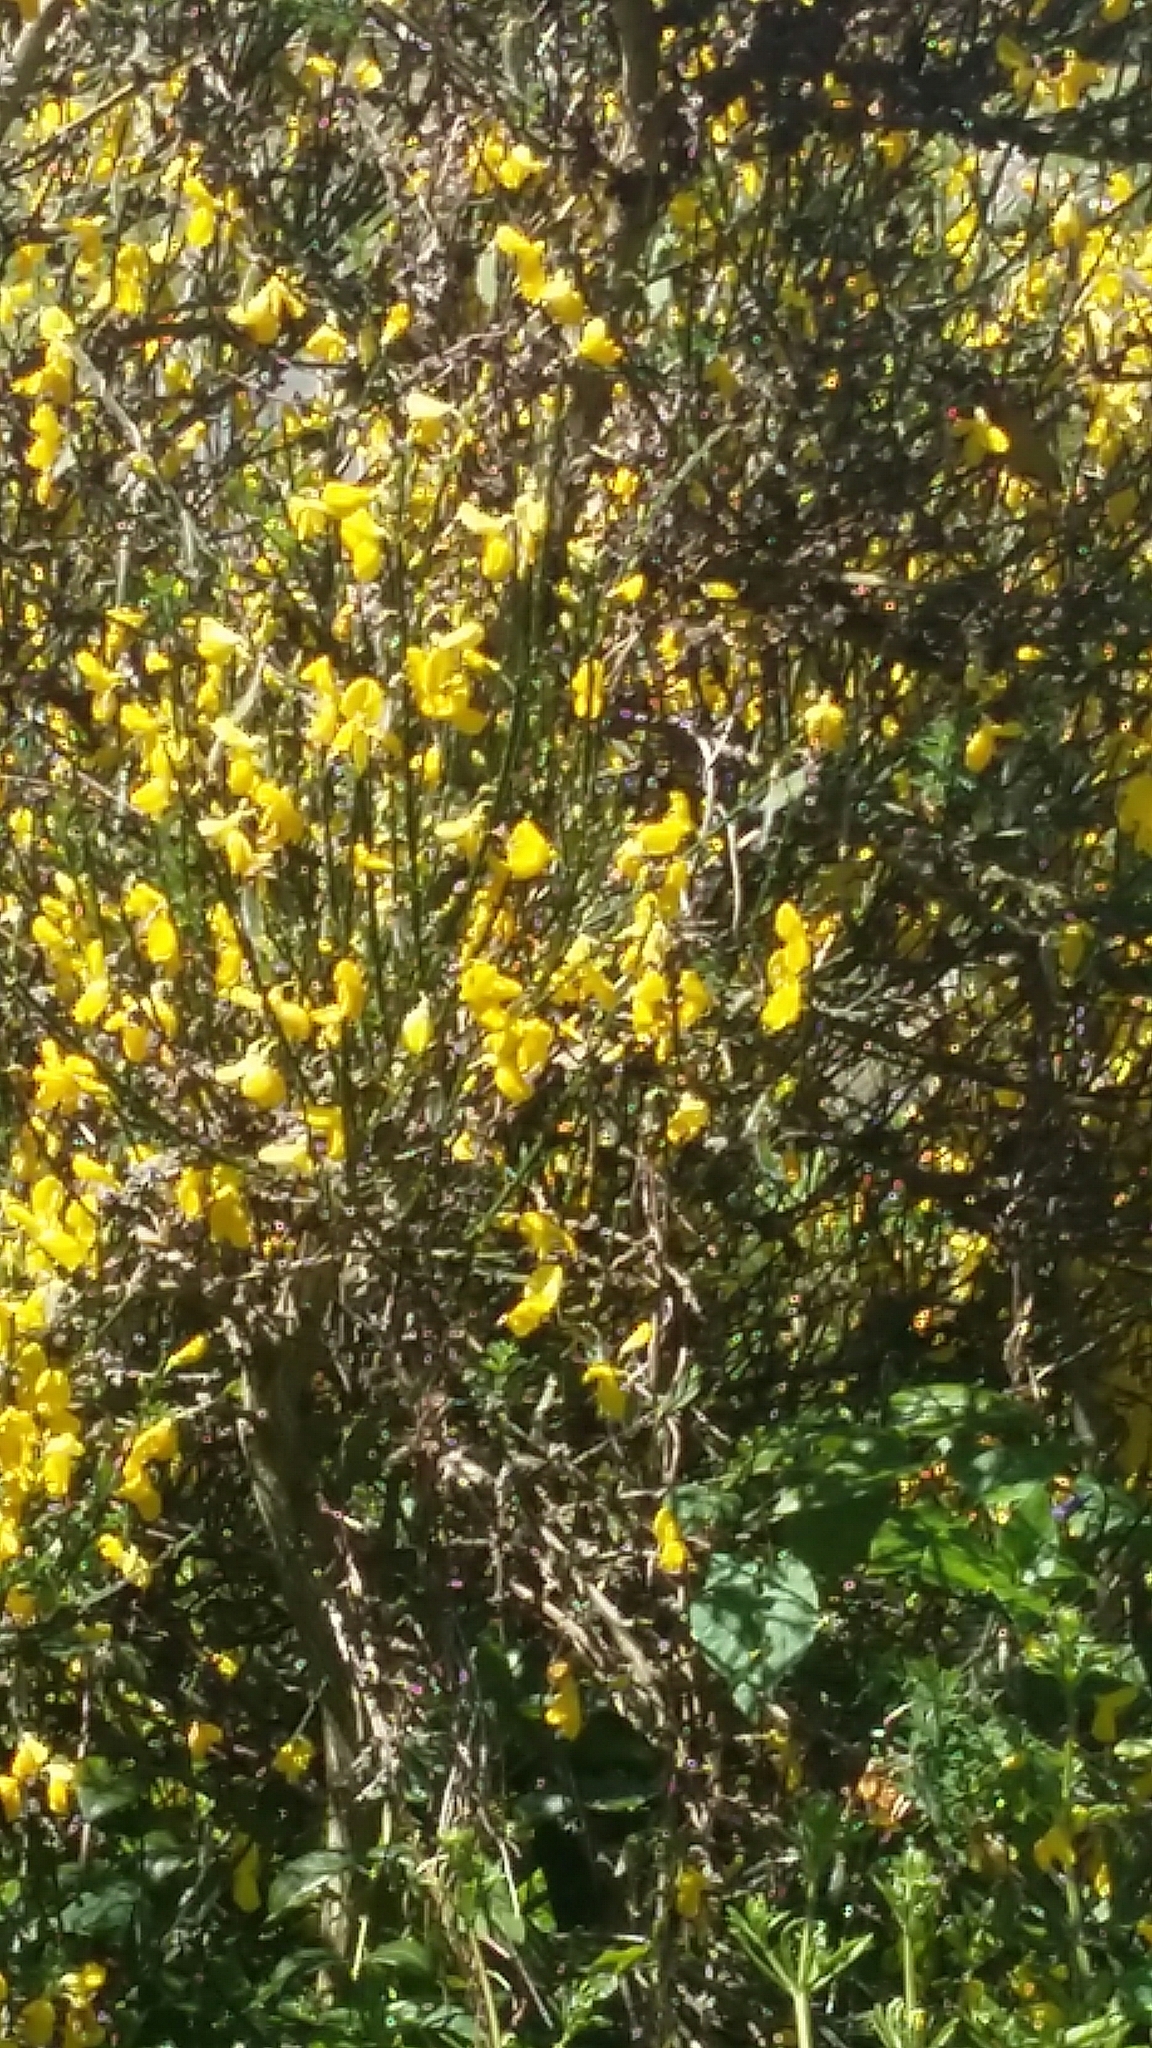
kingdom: Plantae
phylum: Tracheophyta
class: Magnoliopsida
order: Fabales
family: Fabaceae
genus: Cytisus
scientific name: Cytisus scoparius
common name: Scotch broom
